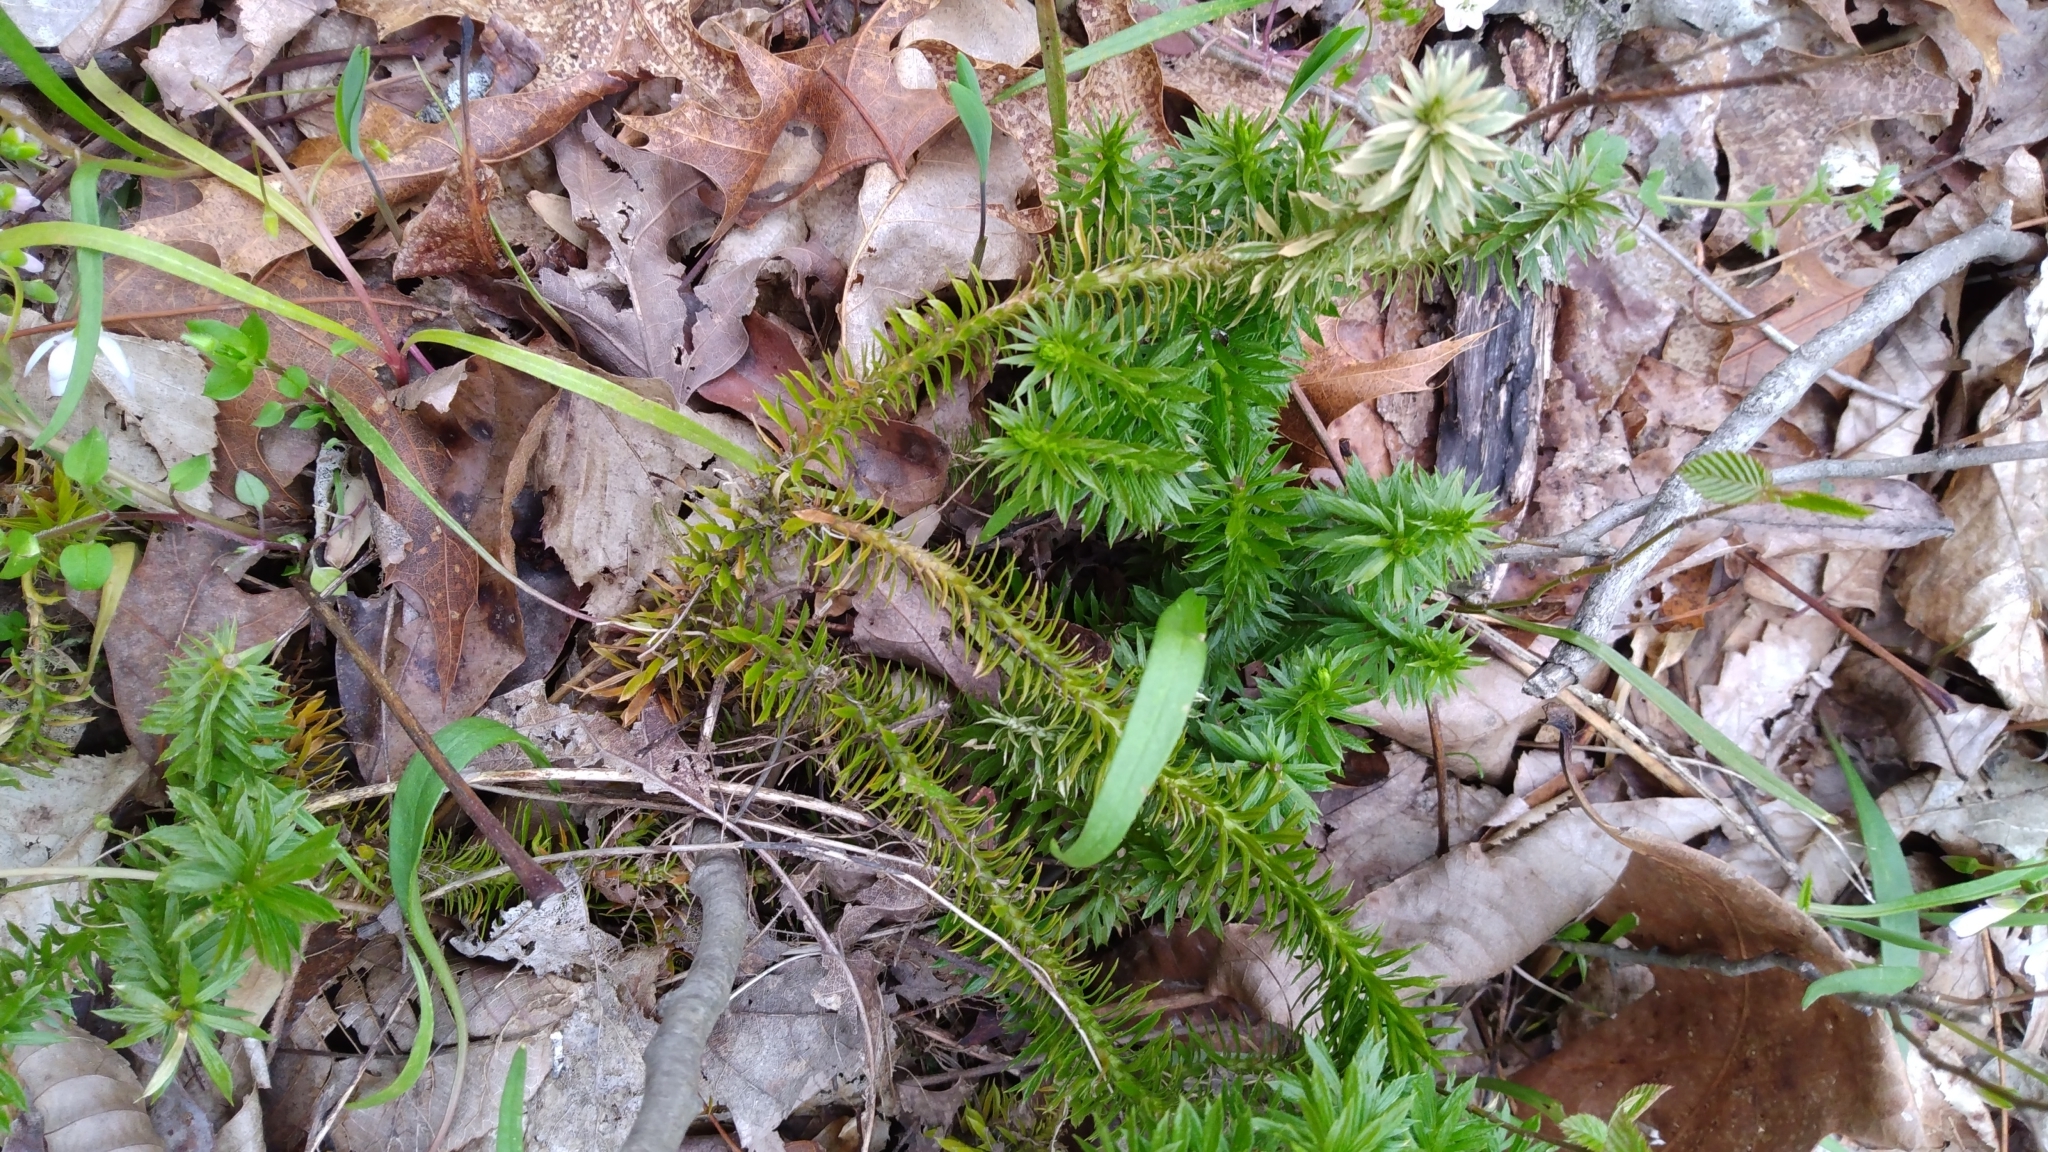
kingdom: Plantae
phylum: Tracheophyta
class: Lycopodiopsida
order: Lycopodiales
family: Lycopodiaceae
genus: Huperzia
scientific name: Huperzia lucidula
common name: Shining clubmoss
